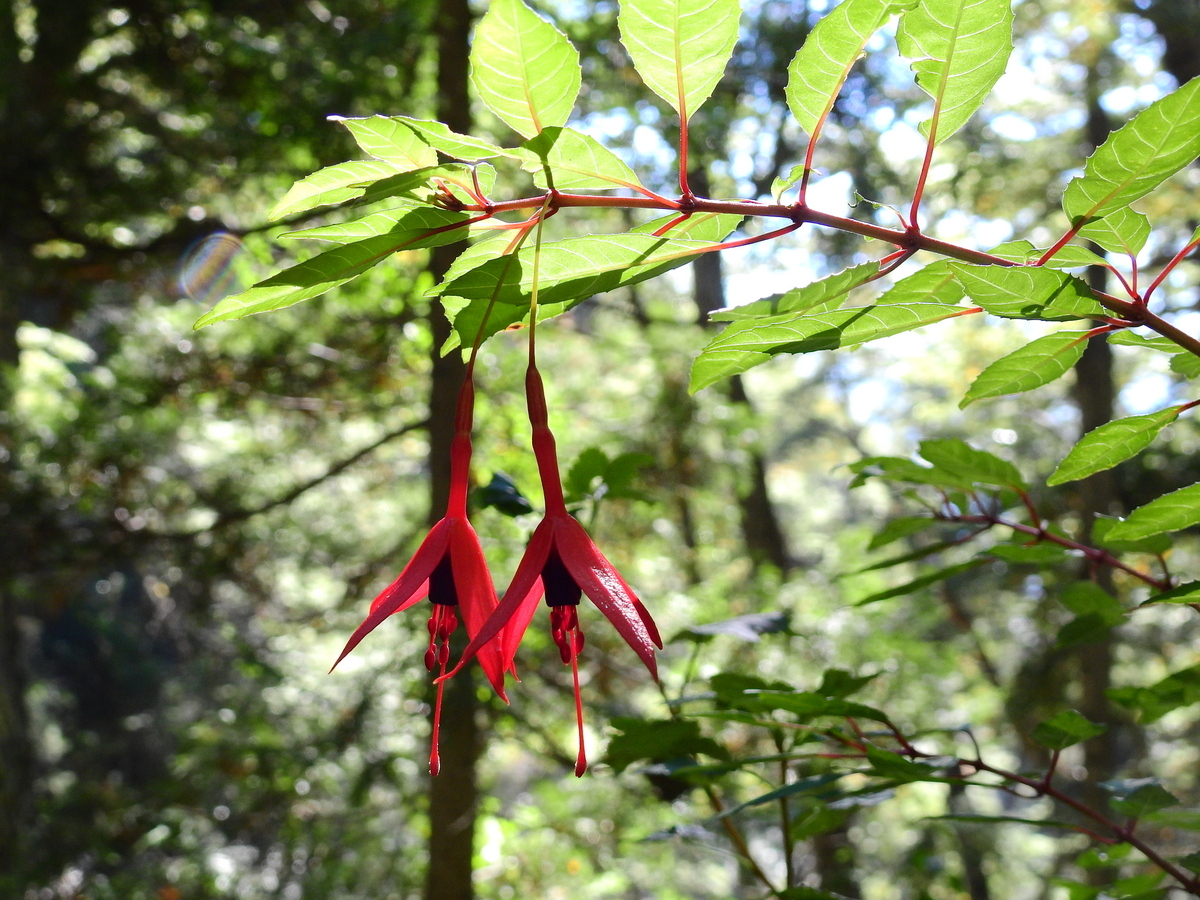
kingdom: Plantae
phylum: Tracheophyta
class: Magnoliopsida
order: Myrtales
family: Onagraceae
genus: Fuchsia
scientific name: Fuchsia magellanica
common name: Hardy fuchsia
